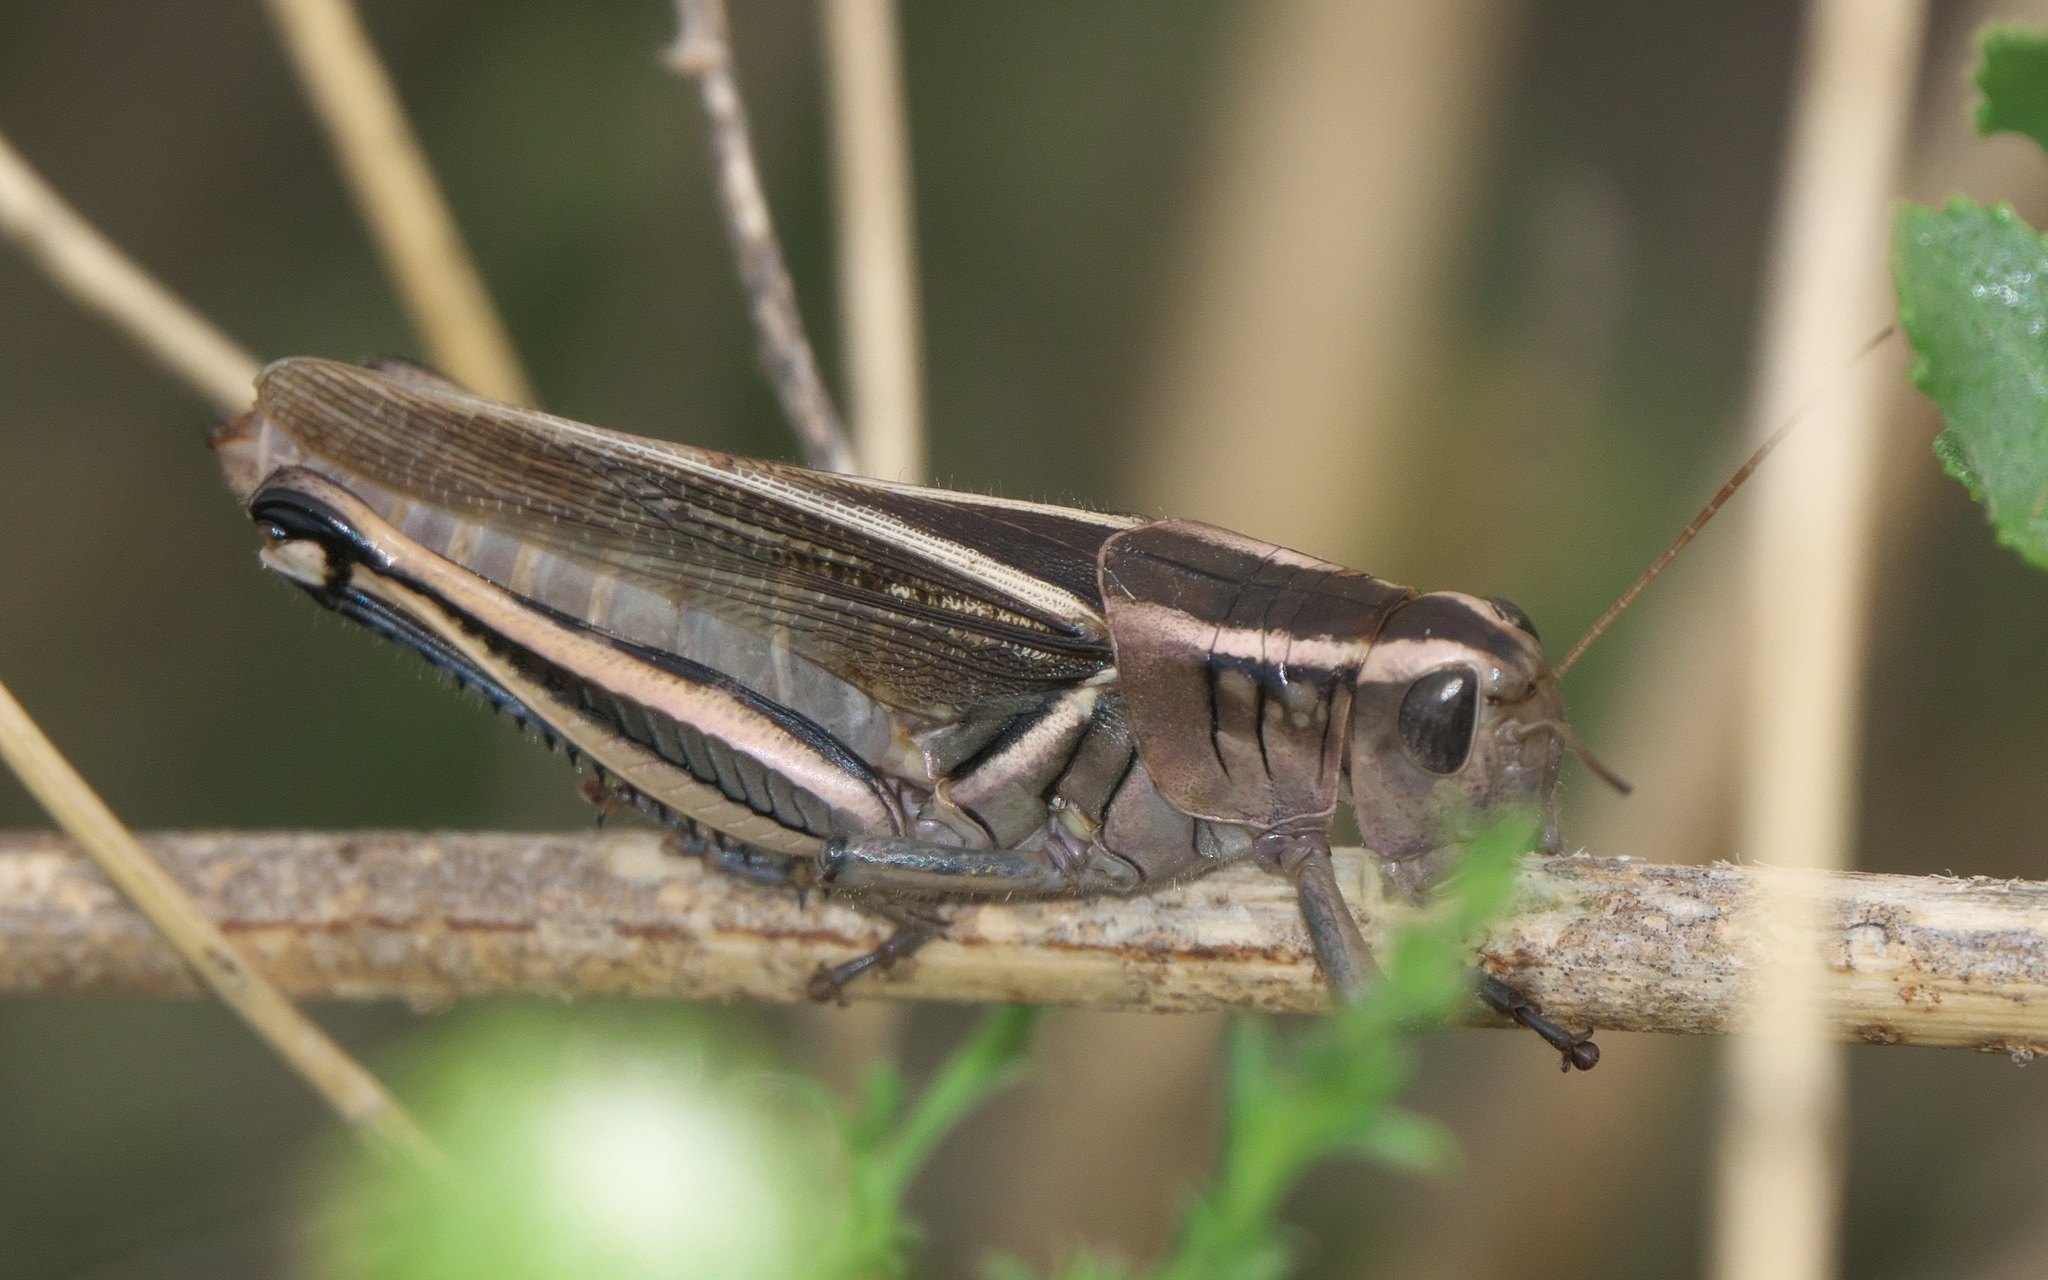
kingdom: Animalia
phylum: Arthropoda
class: Insecta
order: Orthoptera
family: Acrididae
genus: Melanoplus
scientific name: Melanoplus bivittatus
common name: Two-striped grasshopper
